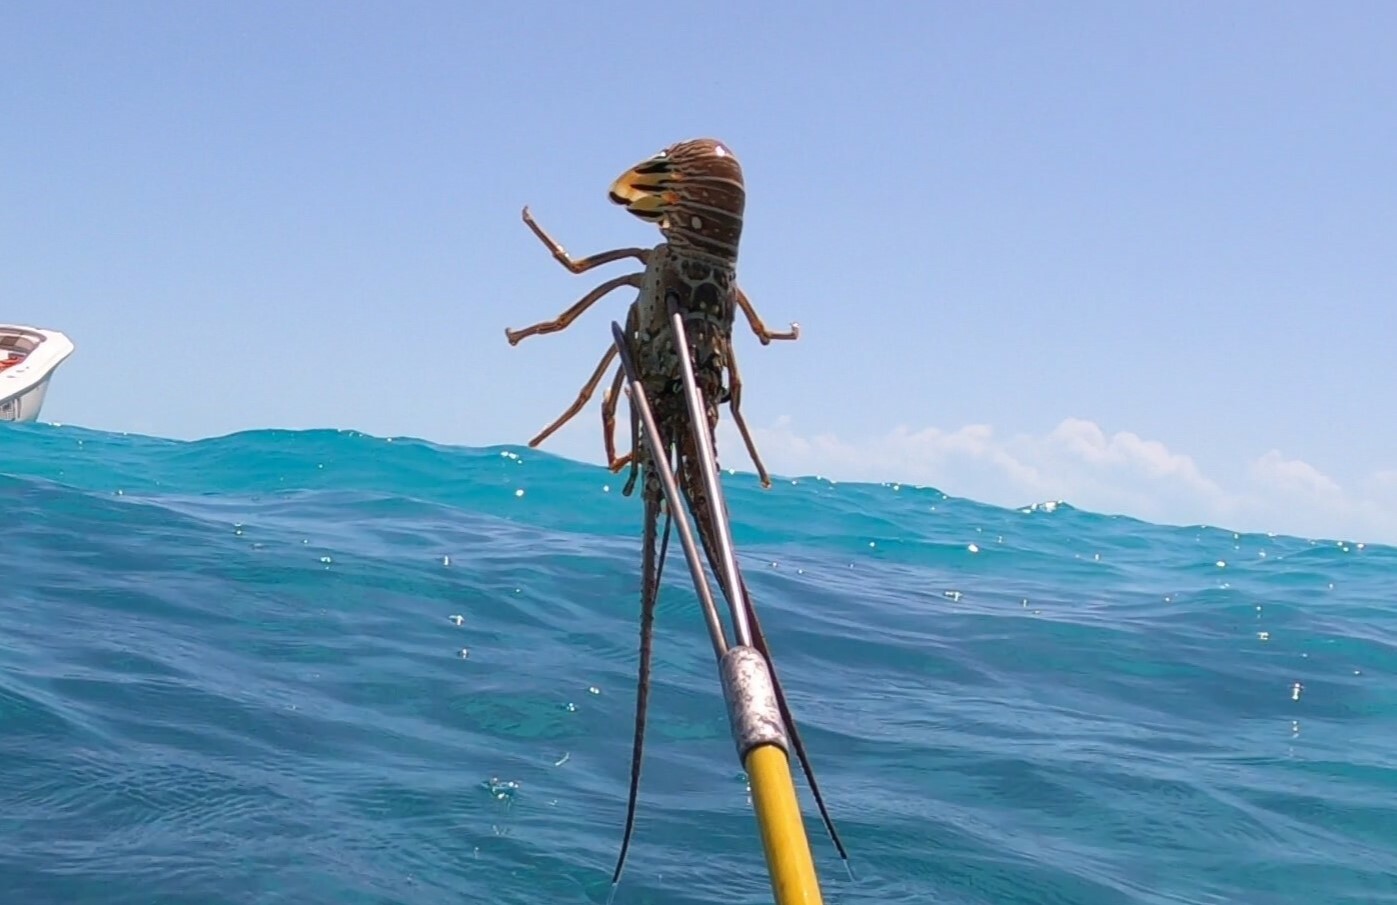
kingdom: Animalia
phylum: Arthropoda
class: Malacostraca
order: Decapoda
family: Palinuridae
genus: Panulirus
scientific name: Panulirus argus
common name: Caribbean spiny lobster
